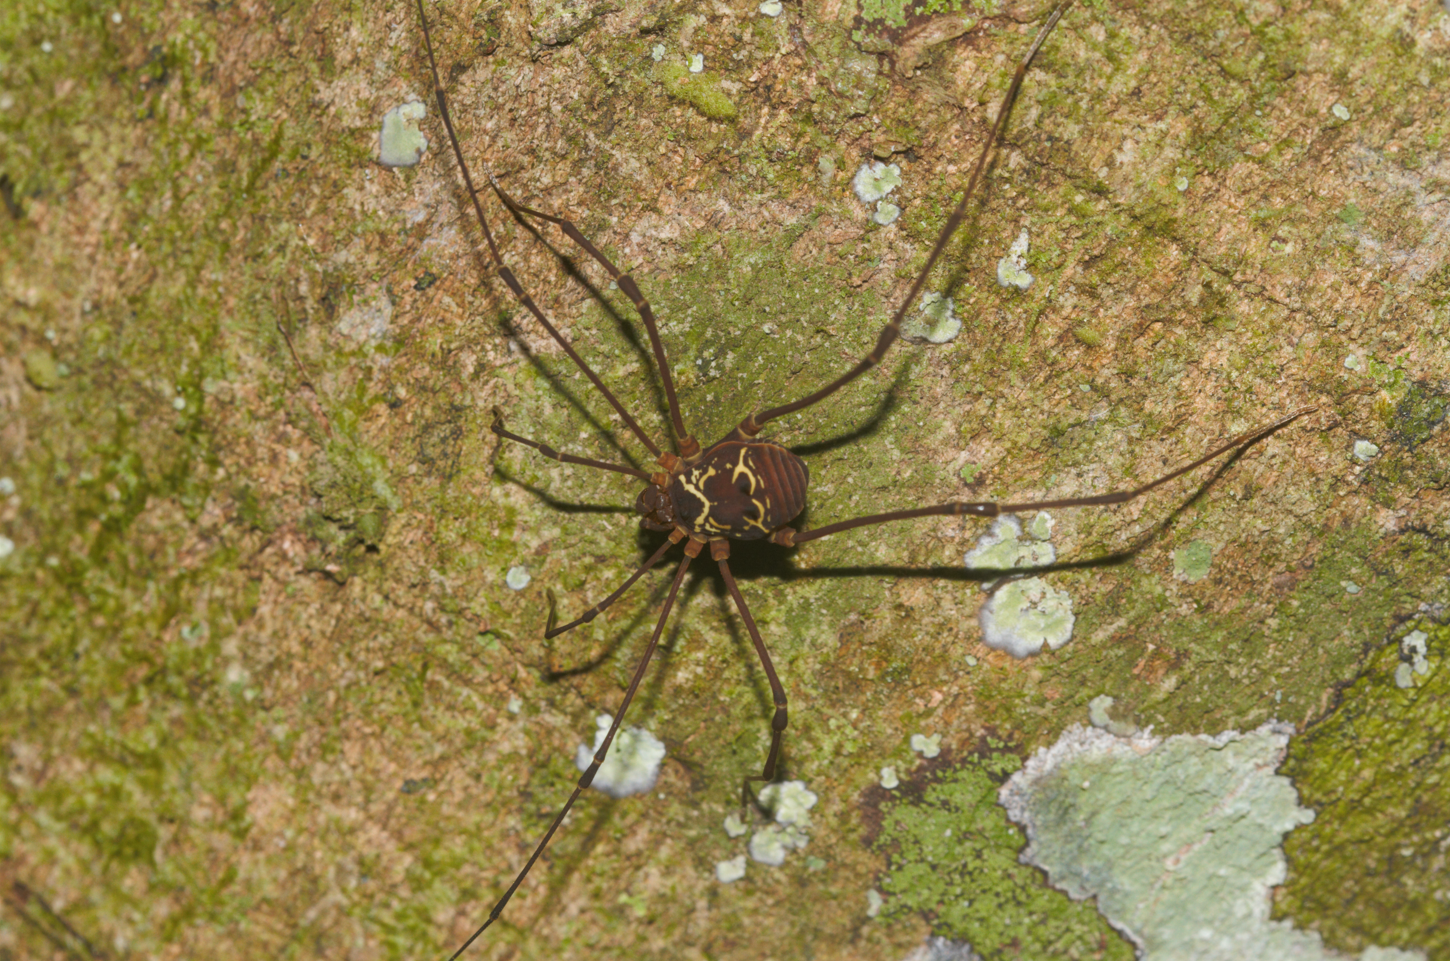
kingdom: Animalia
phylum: Arthropoda
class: Arachnida
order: Opiliones
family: Cosmetidae
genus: Paecilaema
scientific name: Paecilaema curvipes
